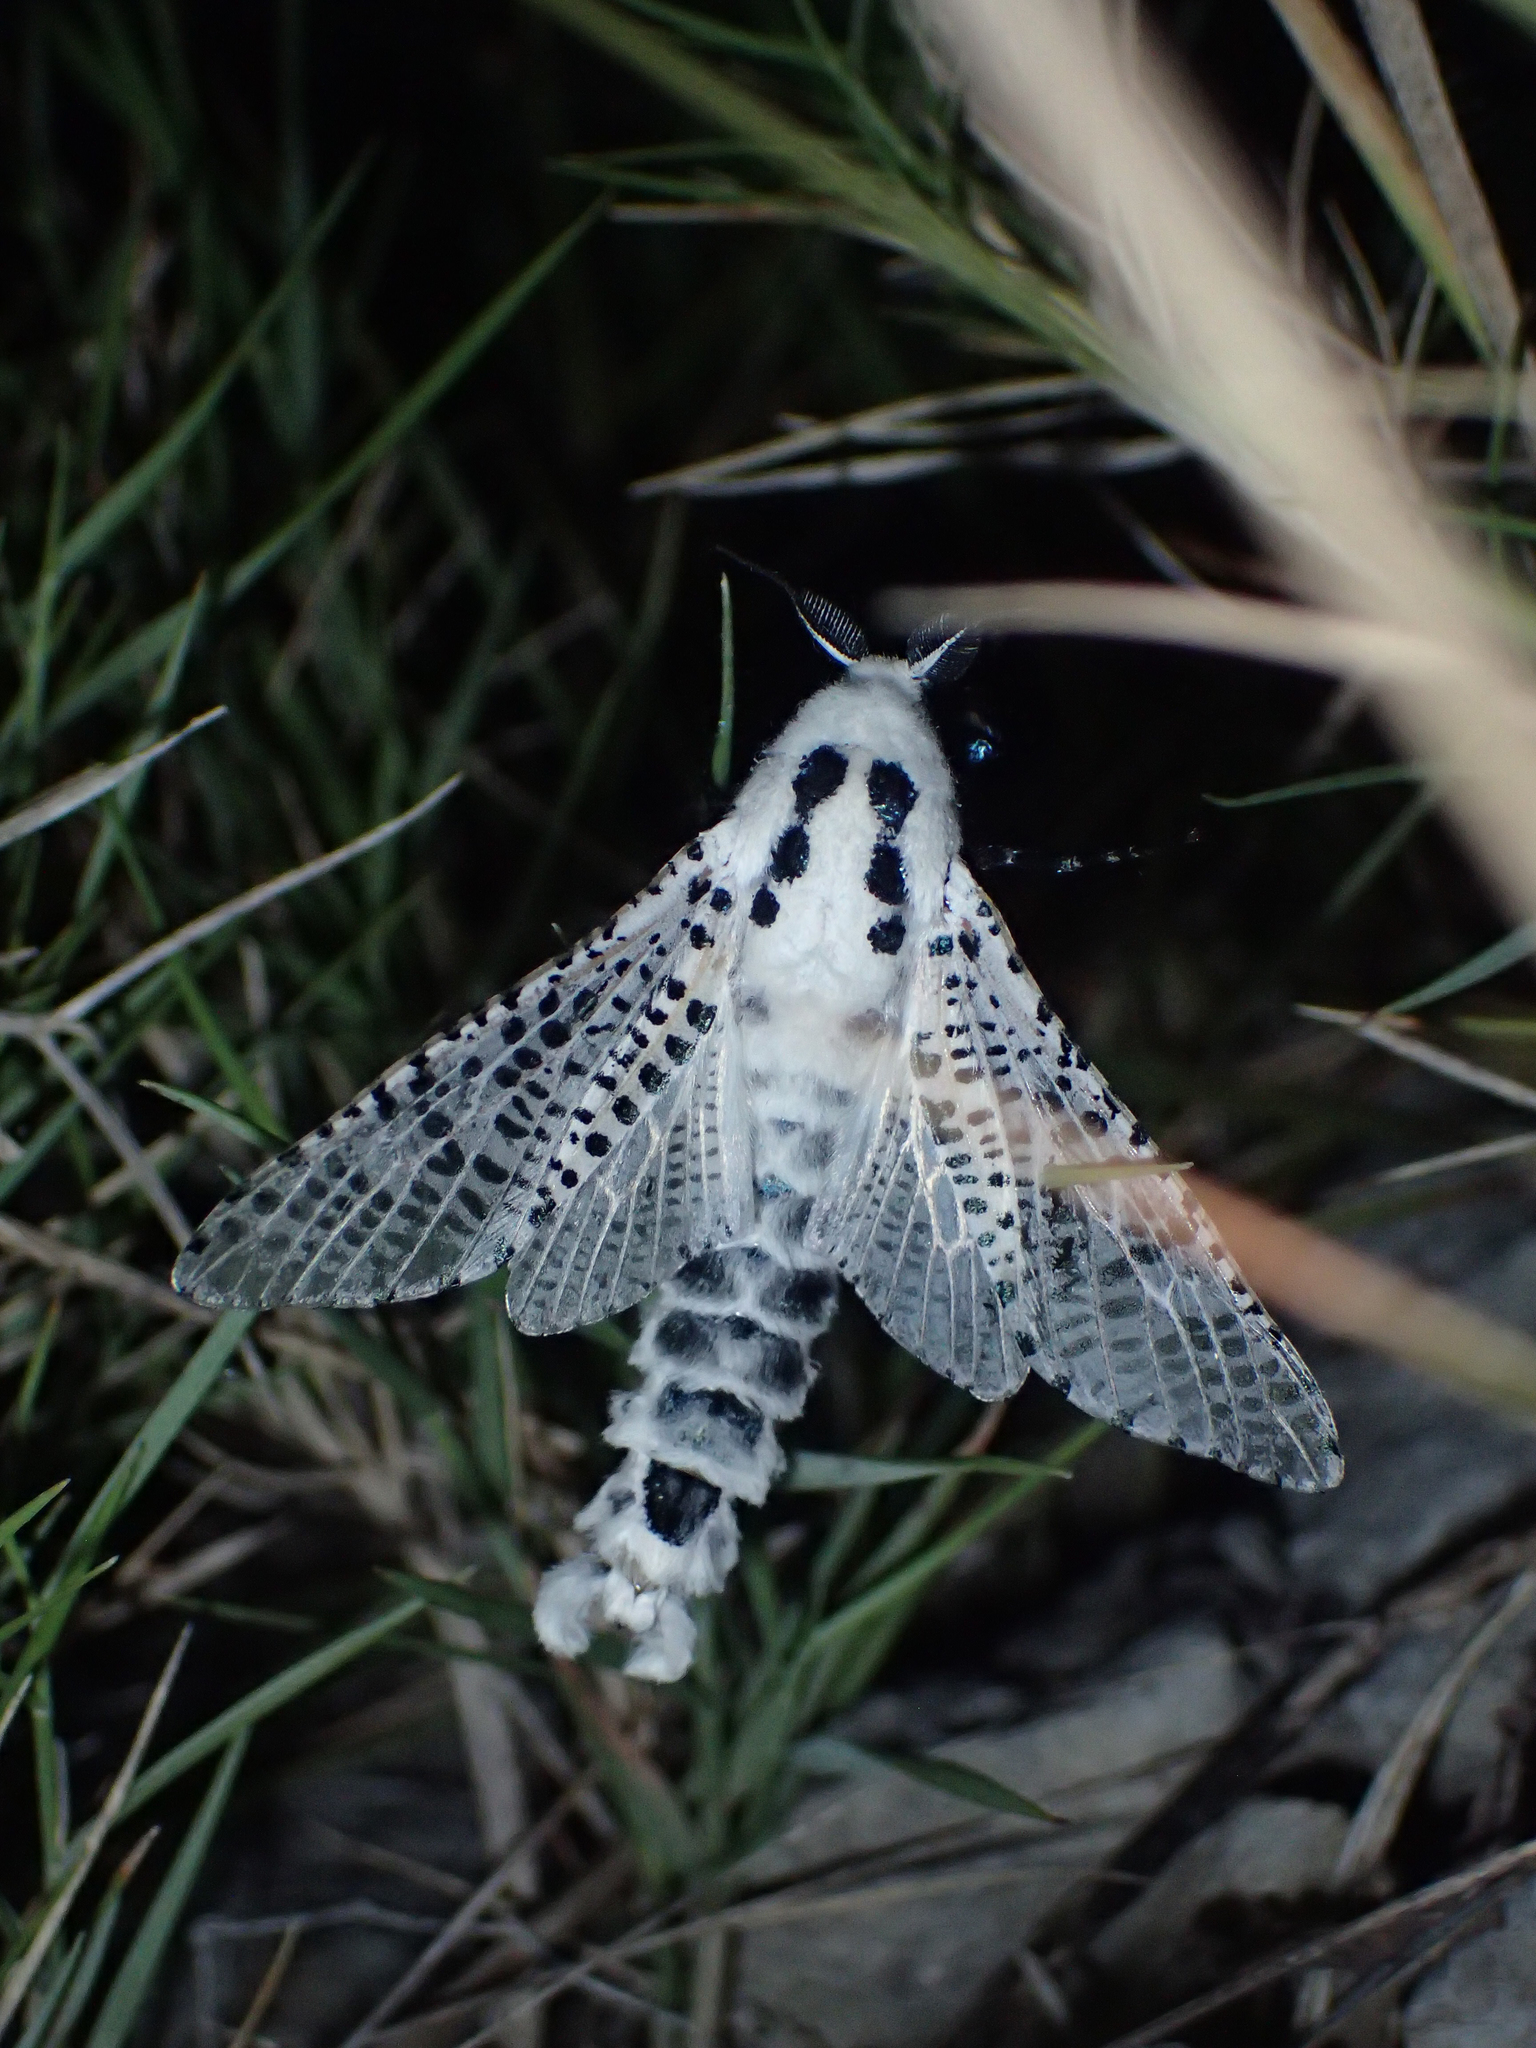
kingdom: Animalia
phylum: Arthropoda
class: Insecta
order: Lepidoptera
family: Cossidae
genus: Zeuzera
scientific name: Zeuzera pyrina
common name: Leopard moth
